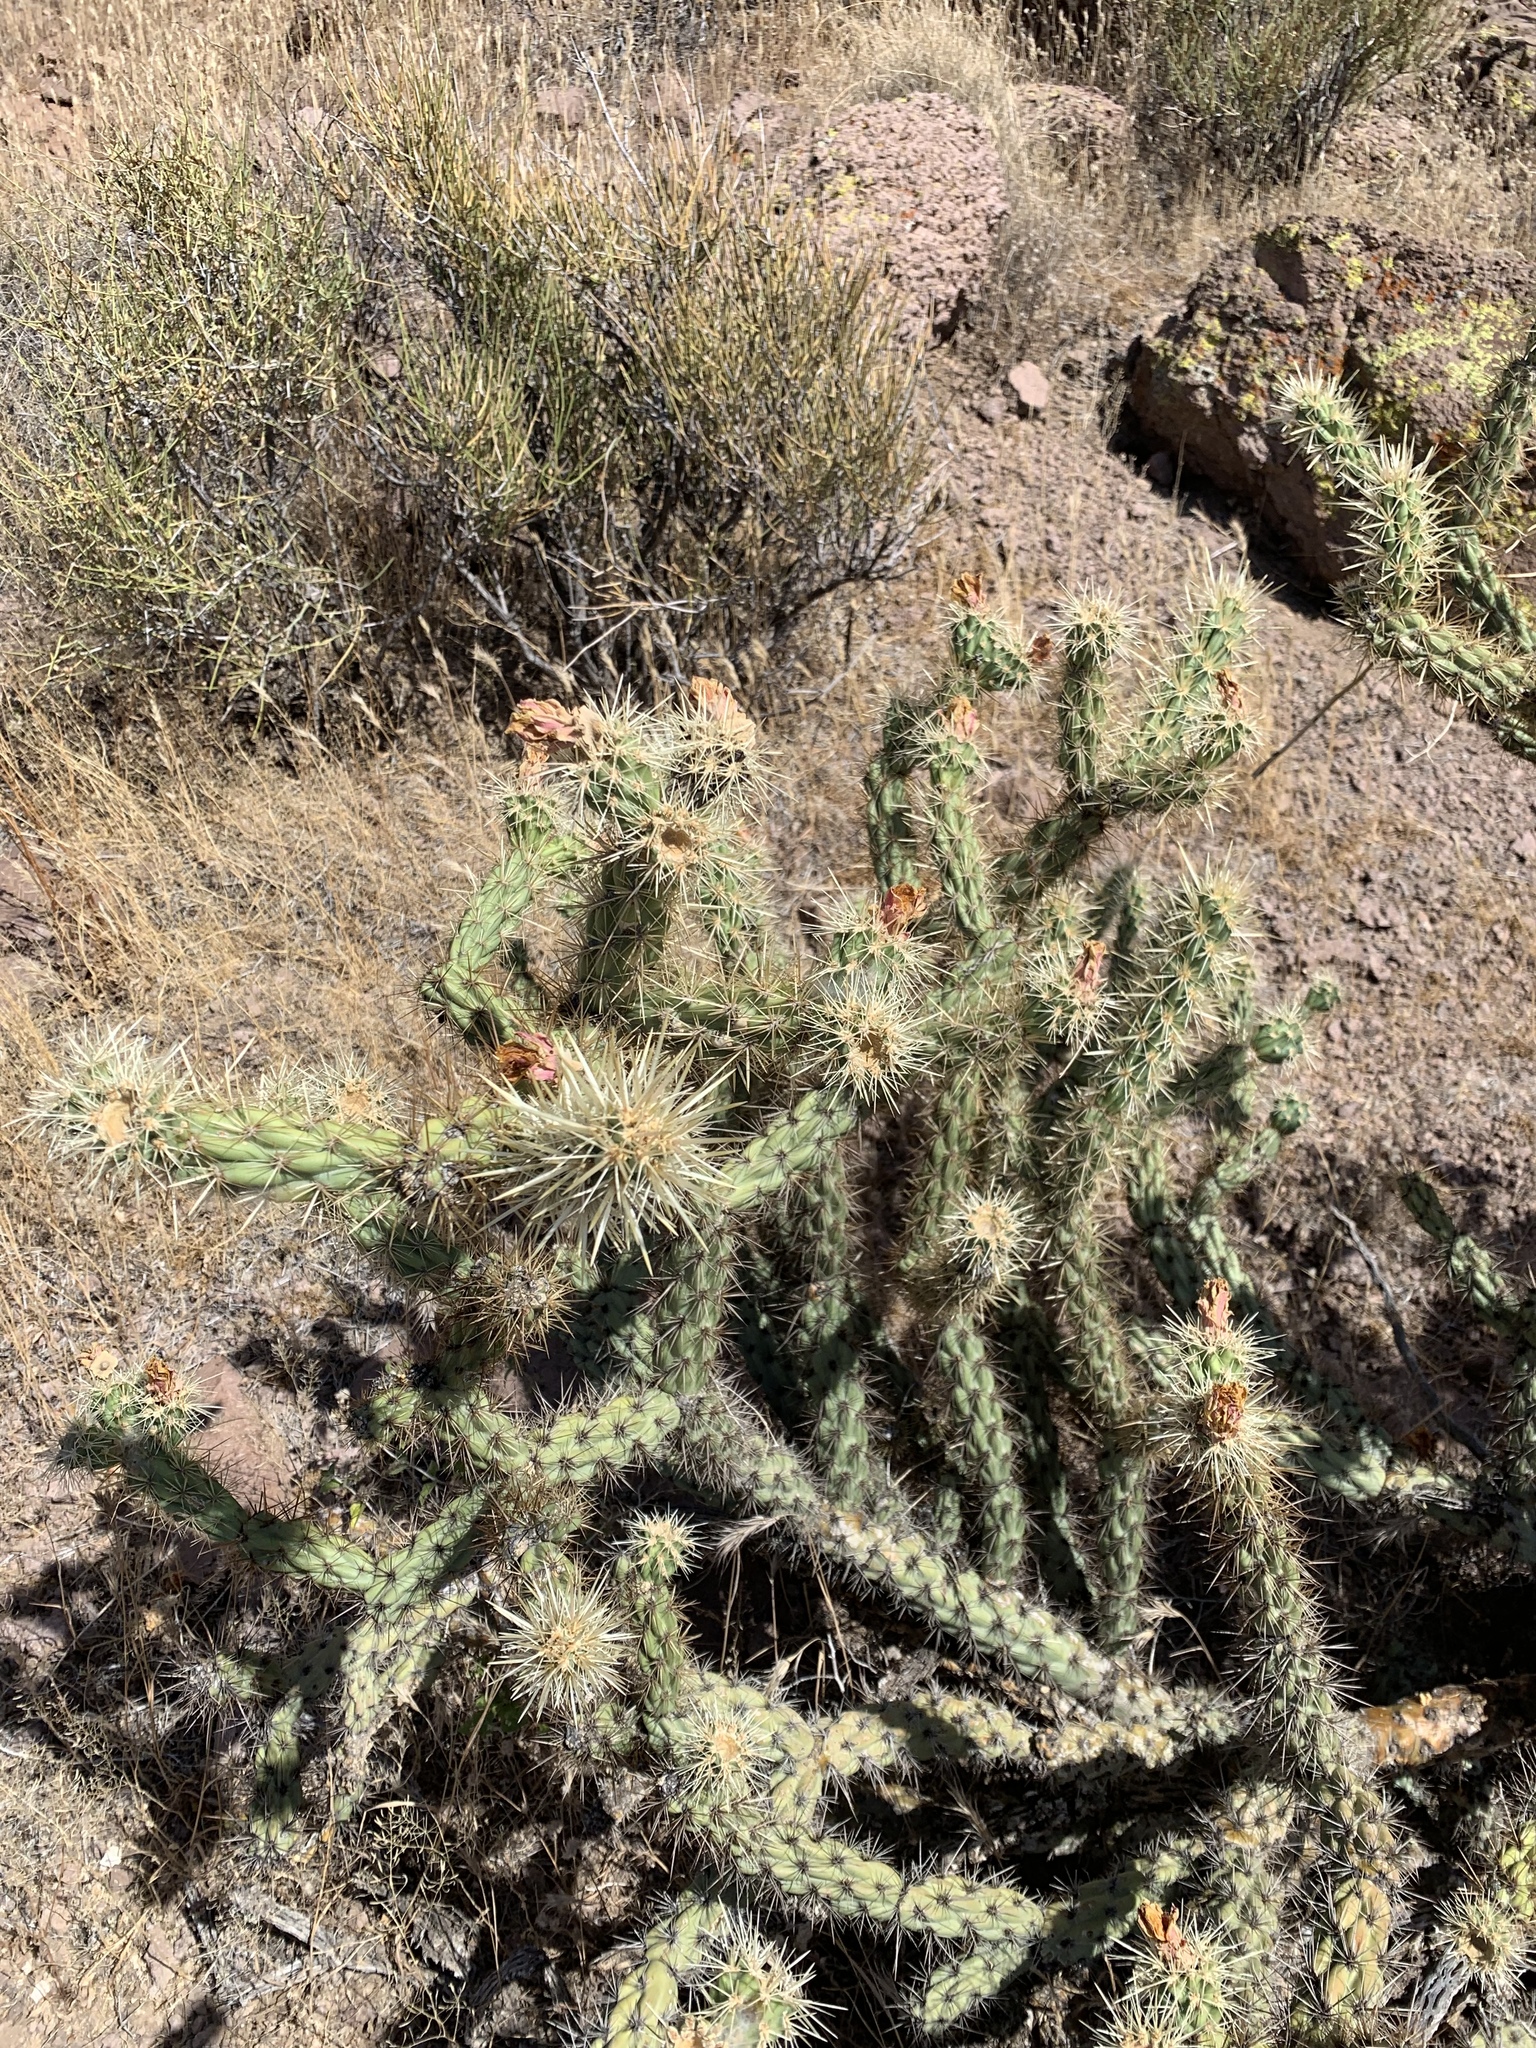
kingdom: Plantae
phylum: Tracheophyta
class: Magnoliopsida
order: Caryophyllales
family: Cactaceae
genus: Cylindropuntia
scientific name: Cylindropuntia acanthocarpa
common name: Buckhorn cholla
